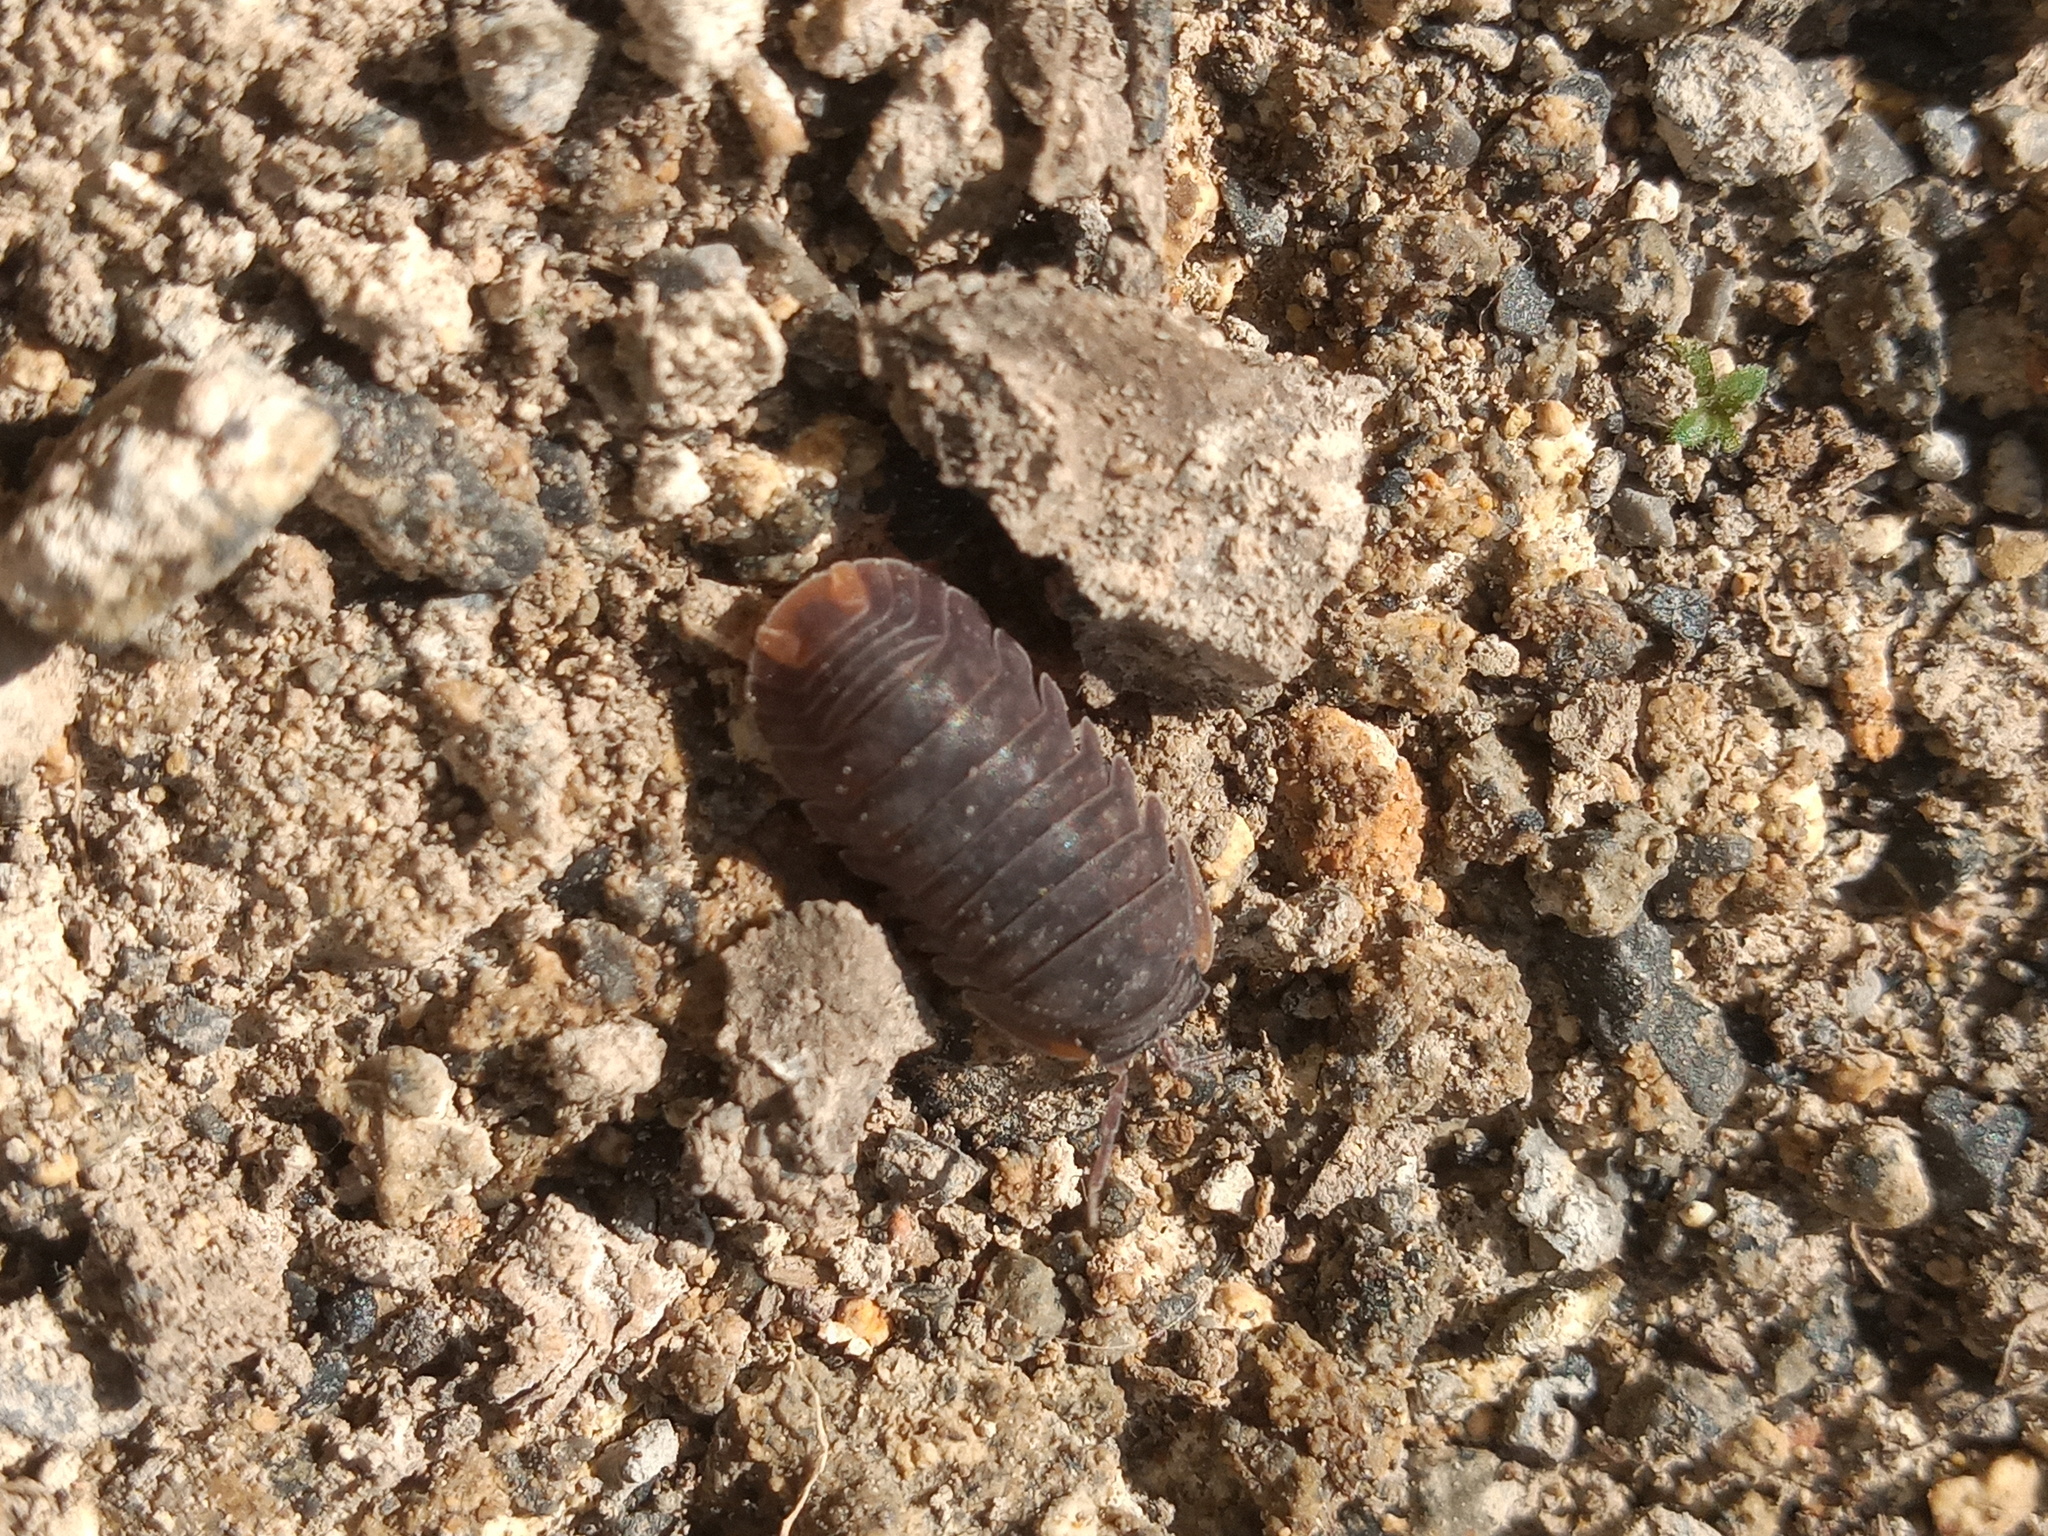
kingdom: Animalia
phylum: Arthropoda
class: Malacostraca
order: Isopoda
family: Armadillidae
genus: Cubaris
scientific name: Cubaris murina
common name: Pillbug
